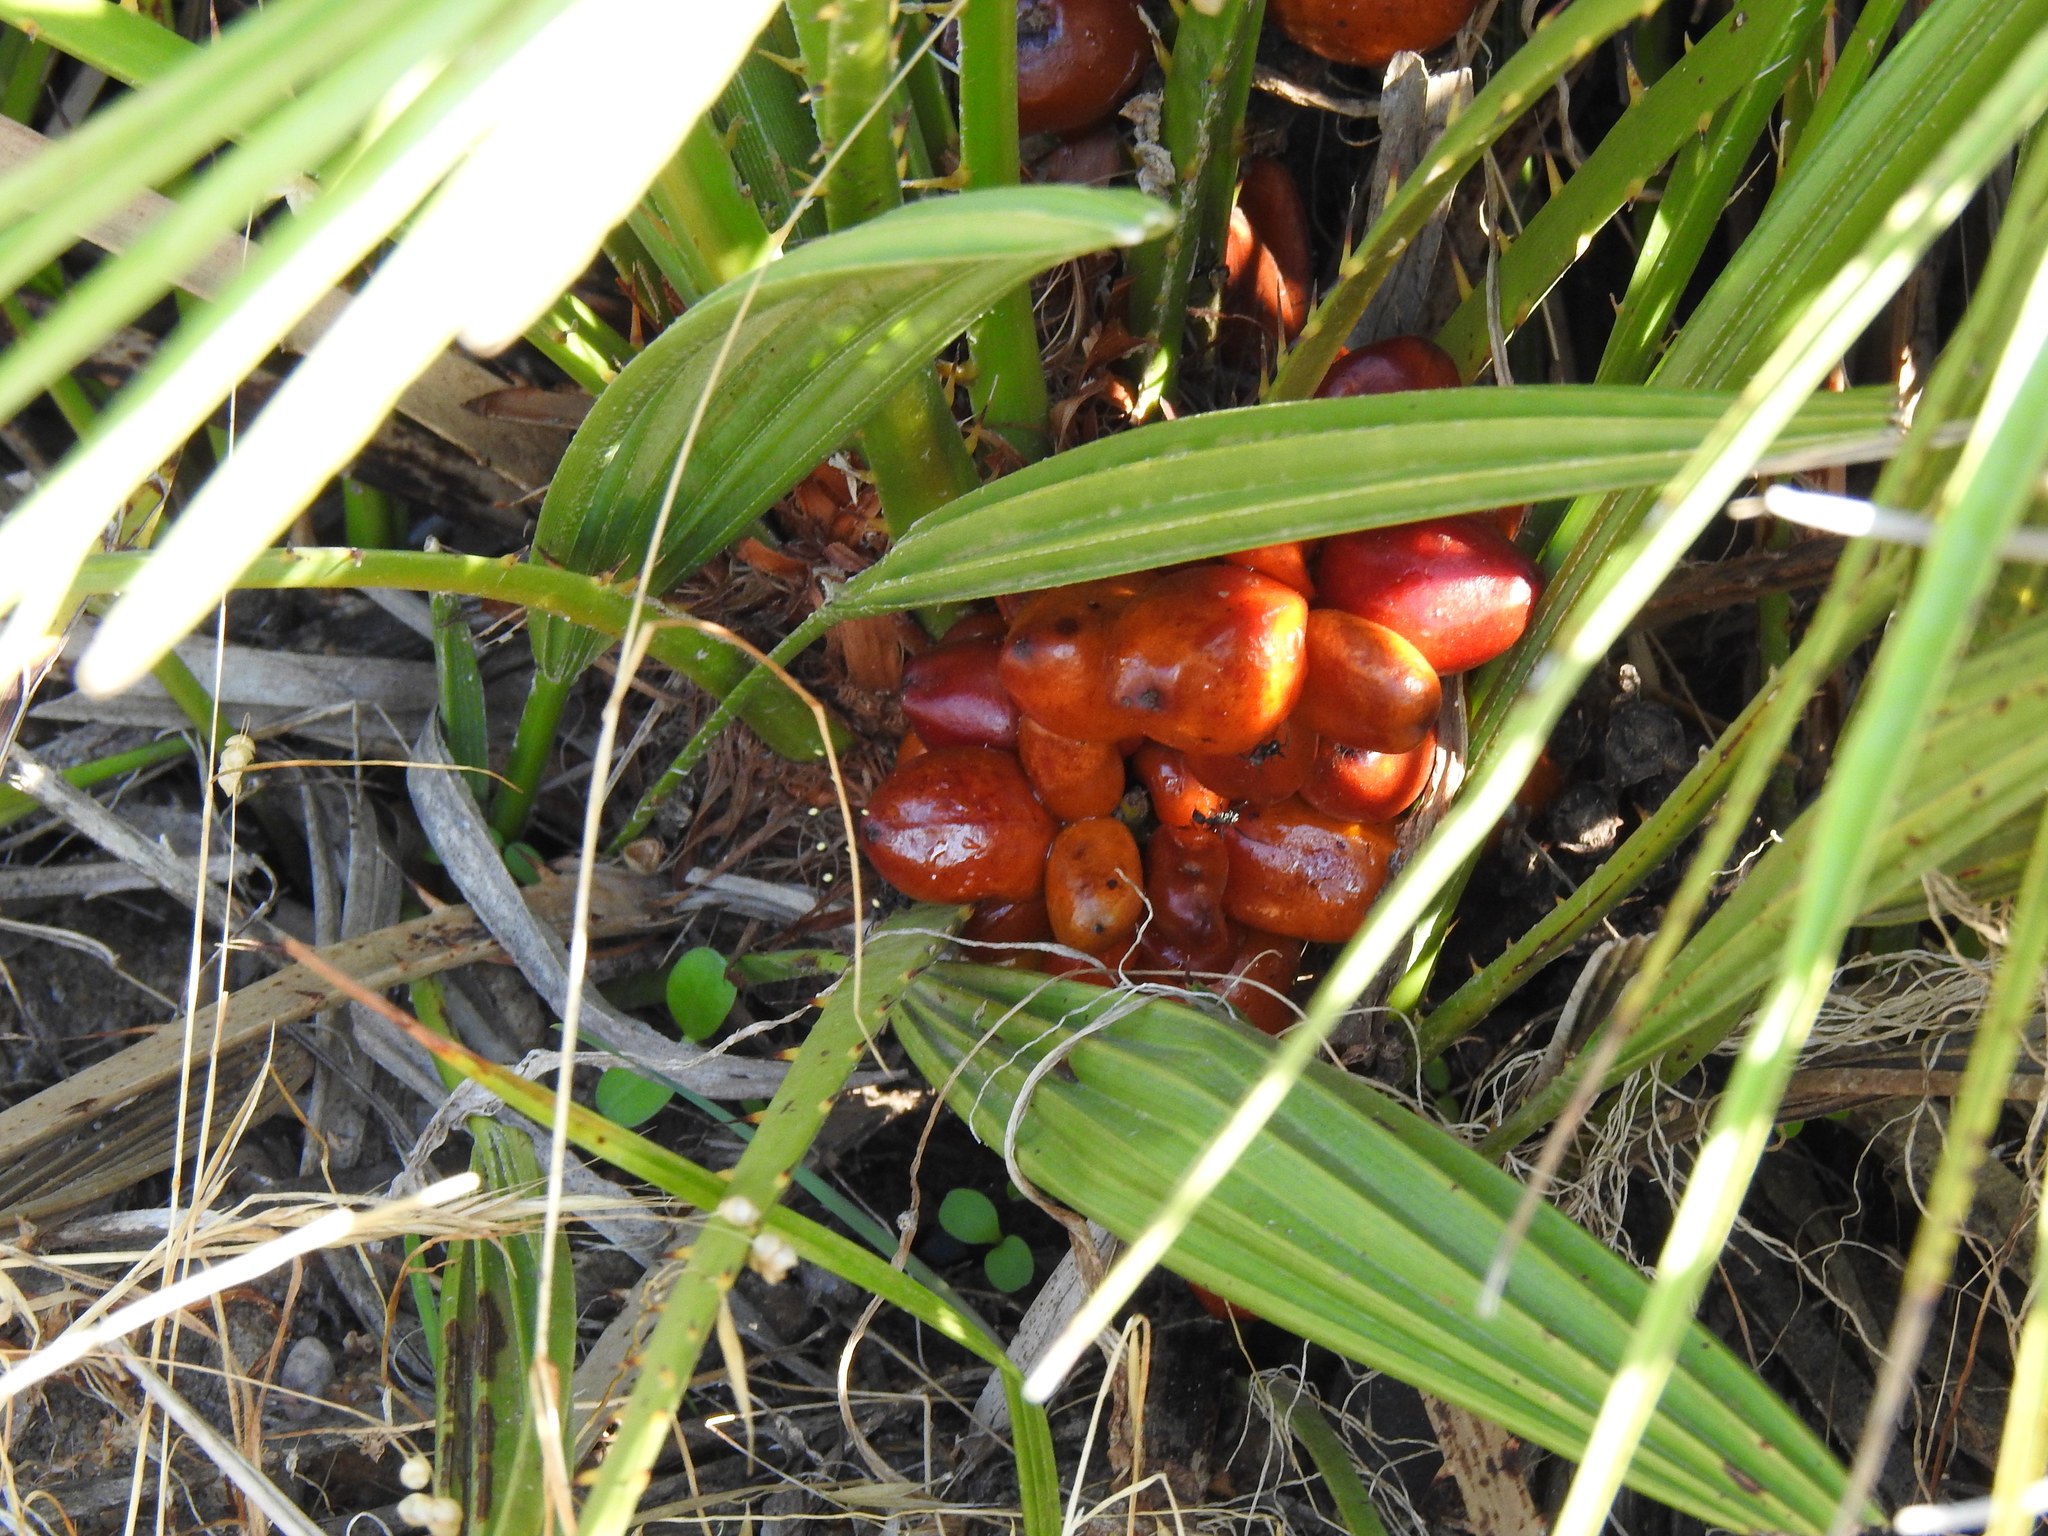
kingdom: Plantae
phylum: Tracheophyta
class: Liliopsida
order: Arecales
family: Arecaceae
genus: Chamaerops
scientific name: Chamaerops humilis
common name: Dwarf fan palm
